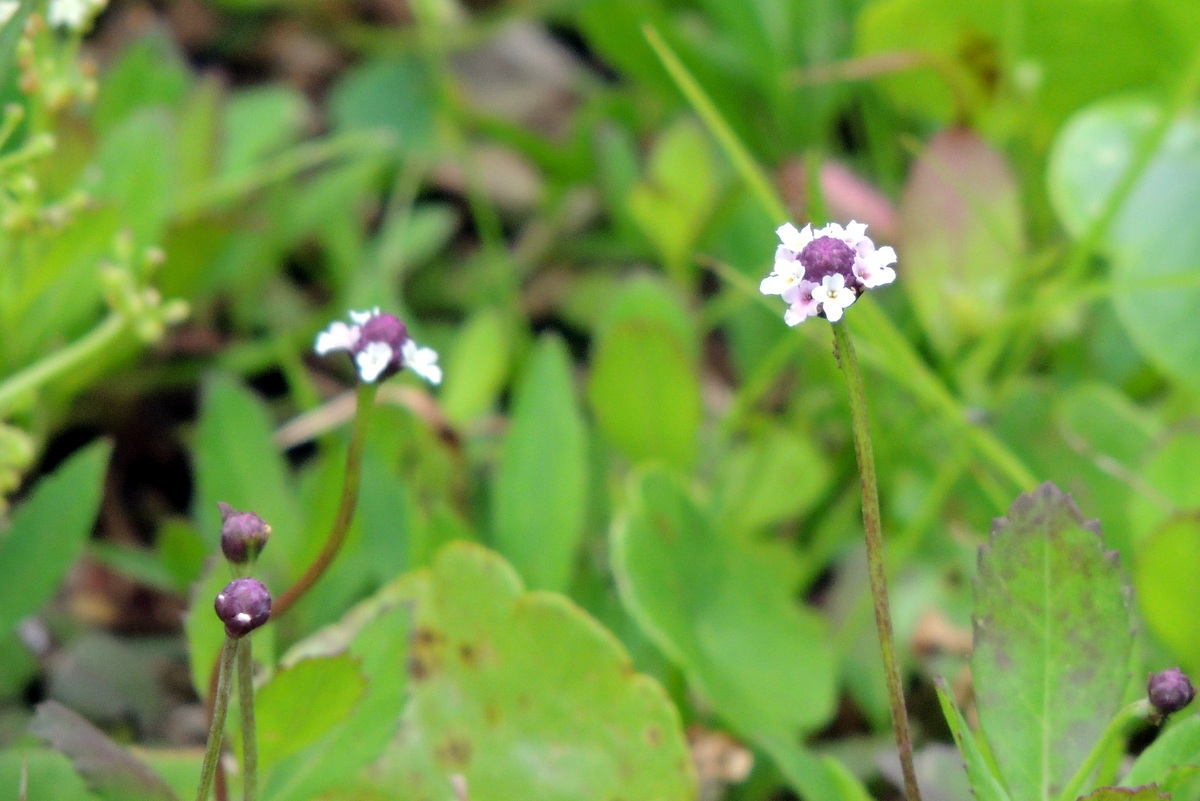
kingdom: Plantae
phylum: Tracheophyta
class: Magnoliopsida
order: Lamiales
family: Verbenaceae
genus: Phyla
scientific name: Phyla nodiflora
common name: Frogfruit
